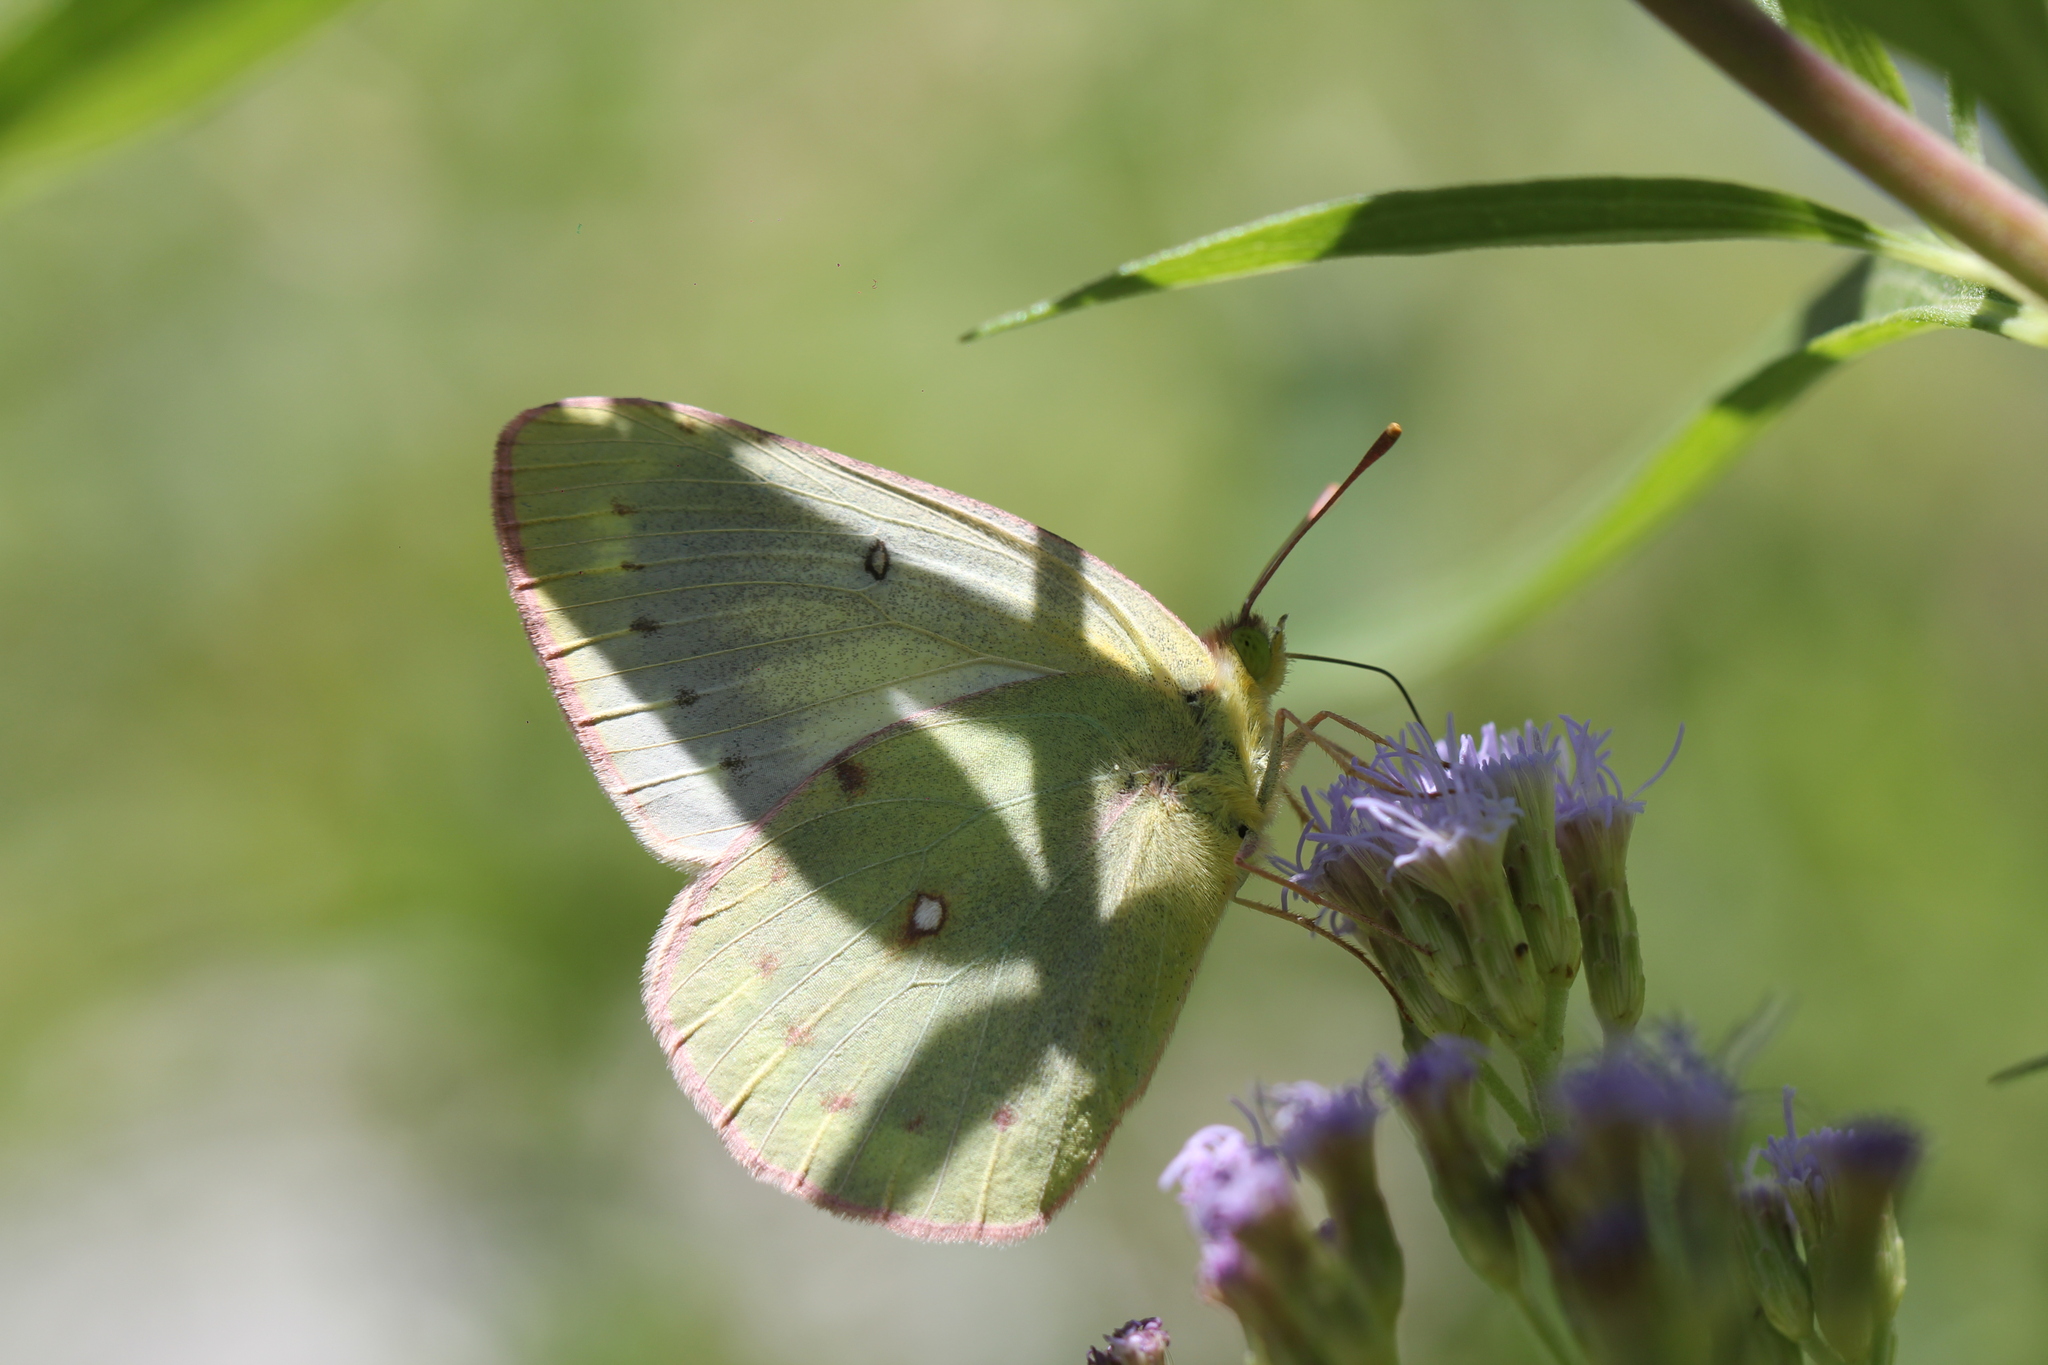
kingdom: Animalia
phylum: Arthropoda
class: Insecta
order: Lepidoptera
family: Pieridae
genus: Colias
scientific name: Colias lesbia
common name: Lesbia clouded yellow
